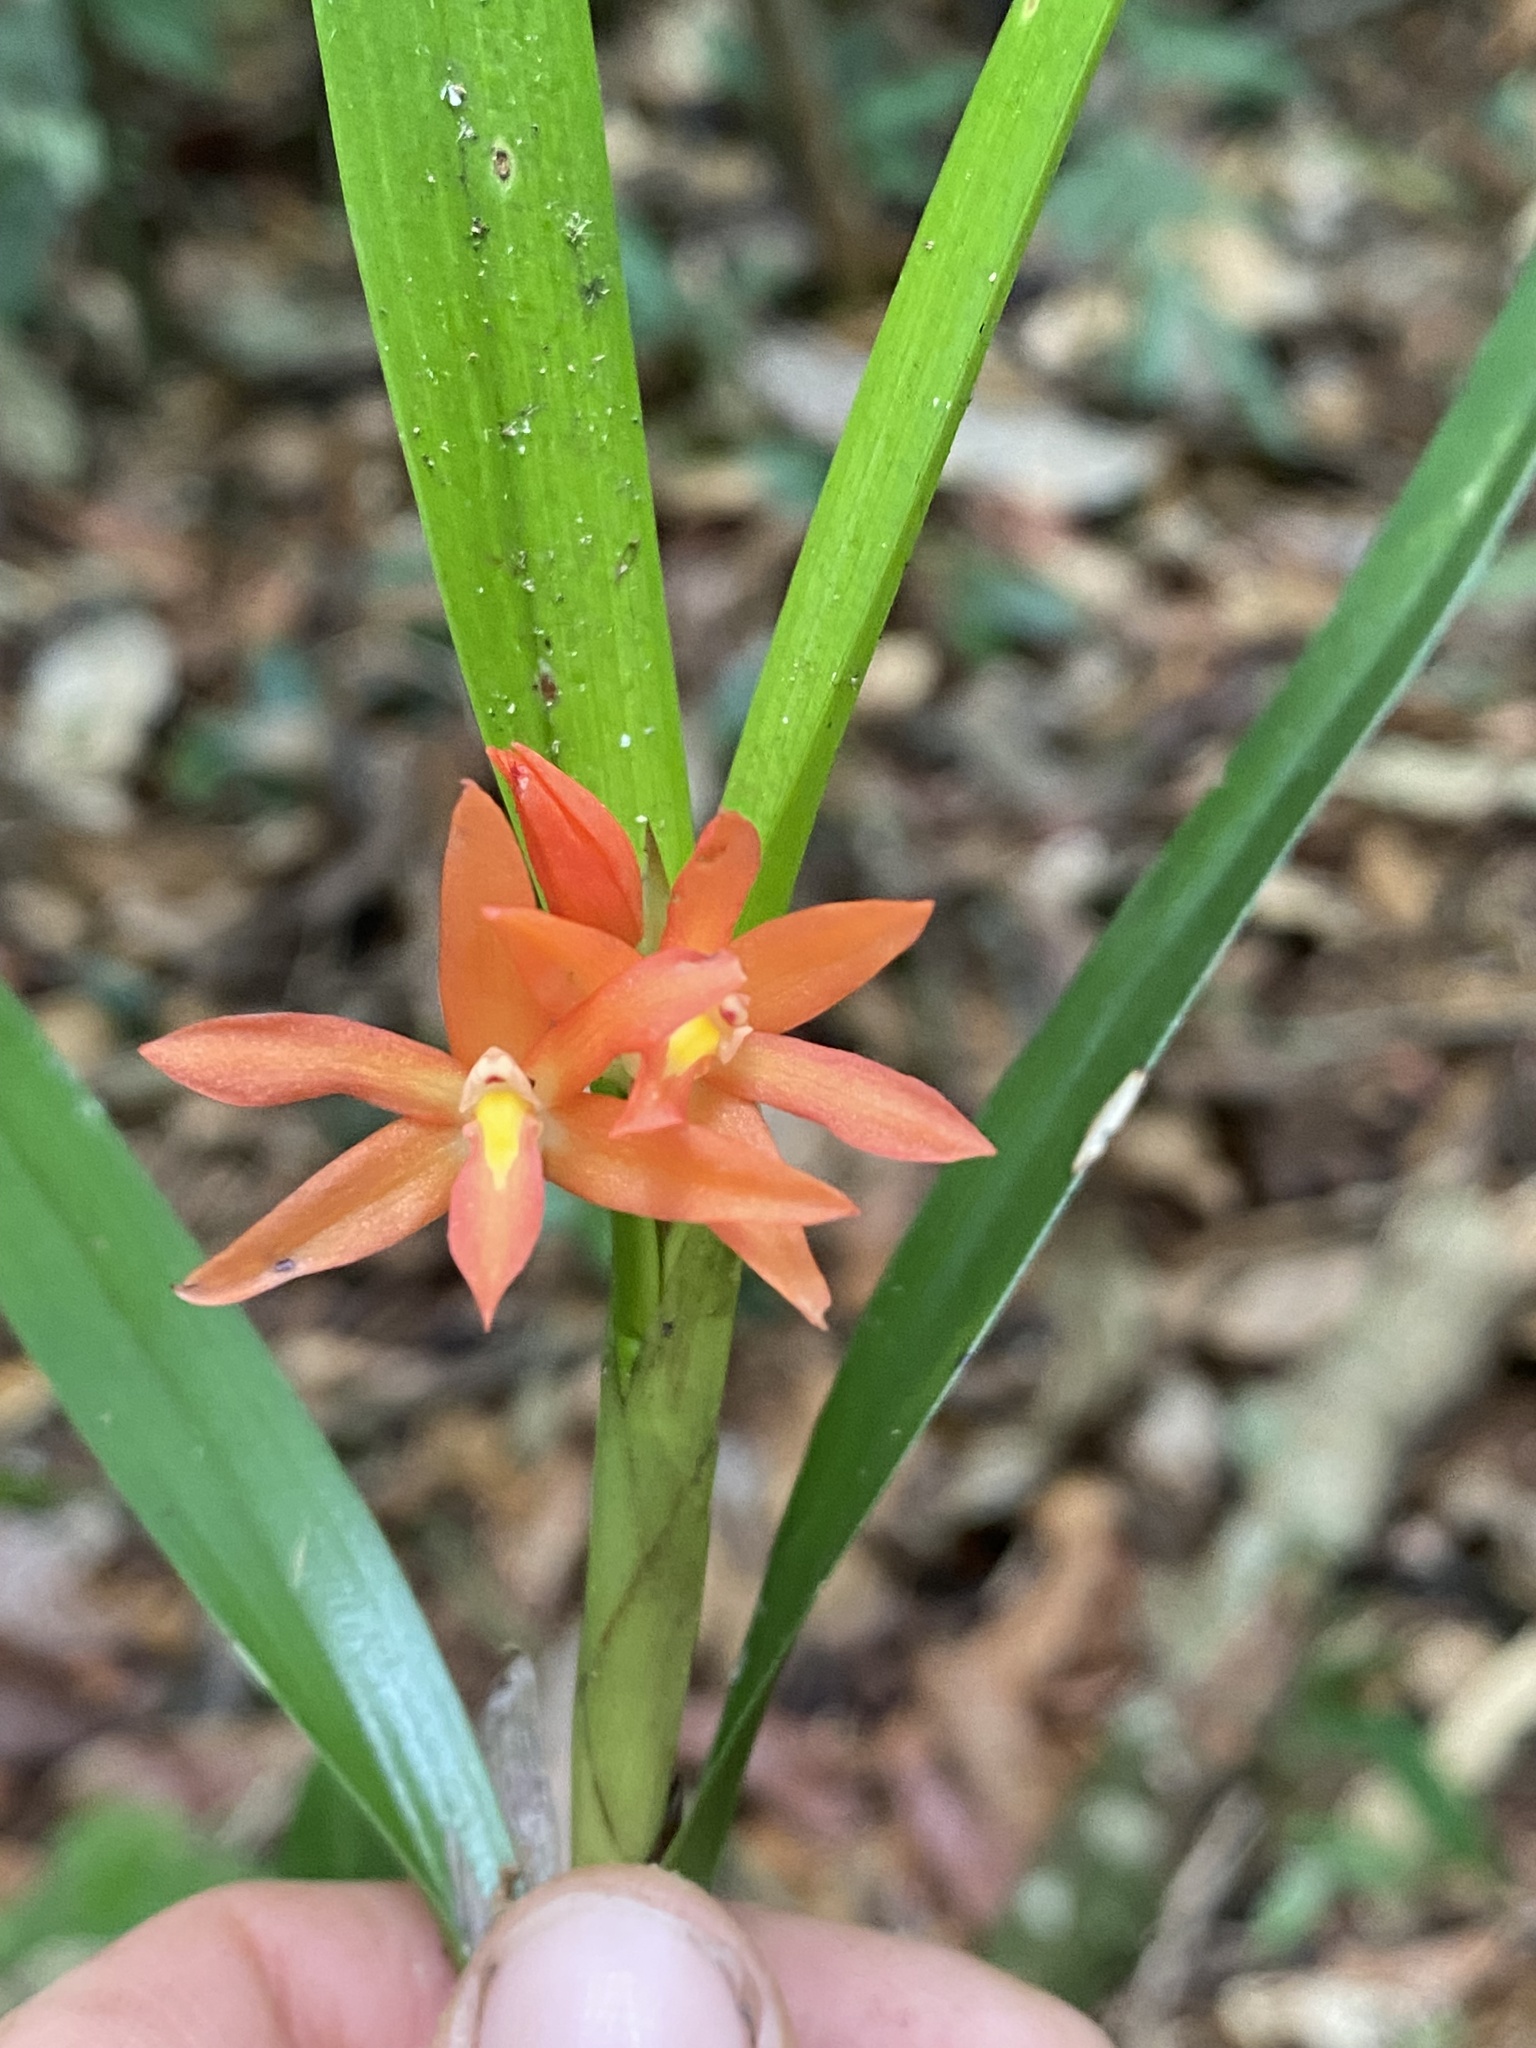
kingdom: Plantae
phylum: Tracheophyta
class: Liliopsida
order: Asparagales
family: Orchidaceae
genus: Scaphyglottis
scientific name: Scaphyglottis imbricata
